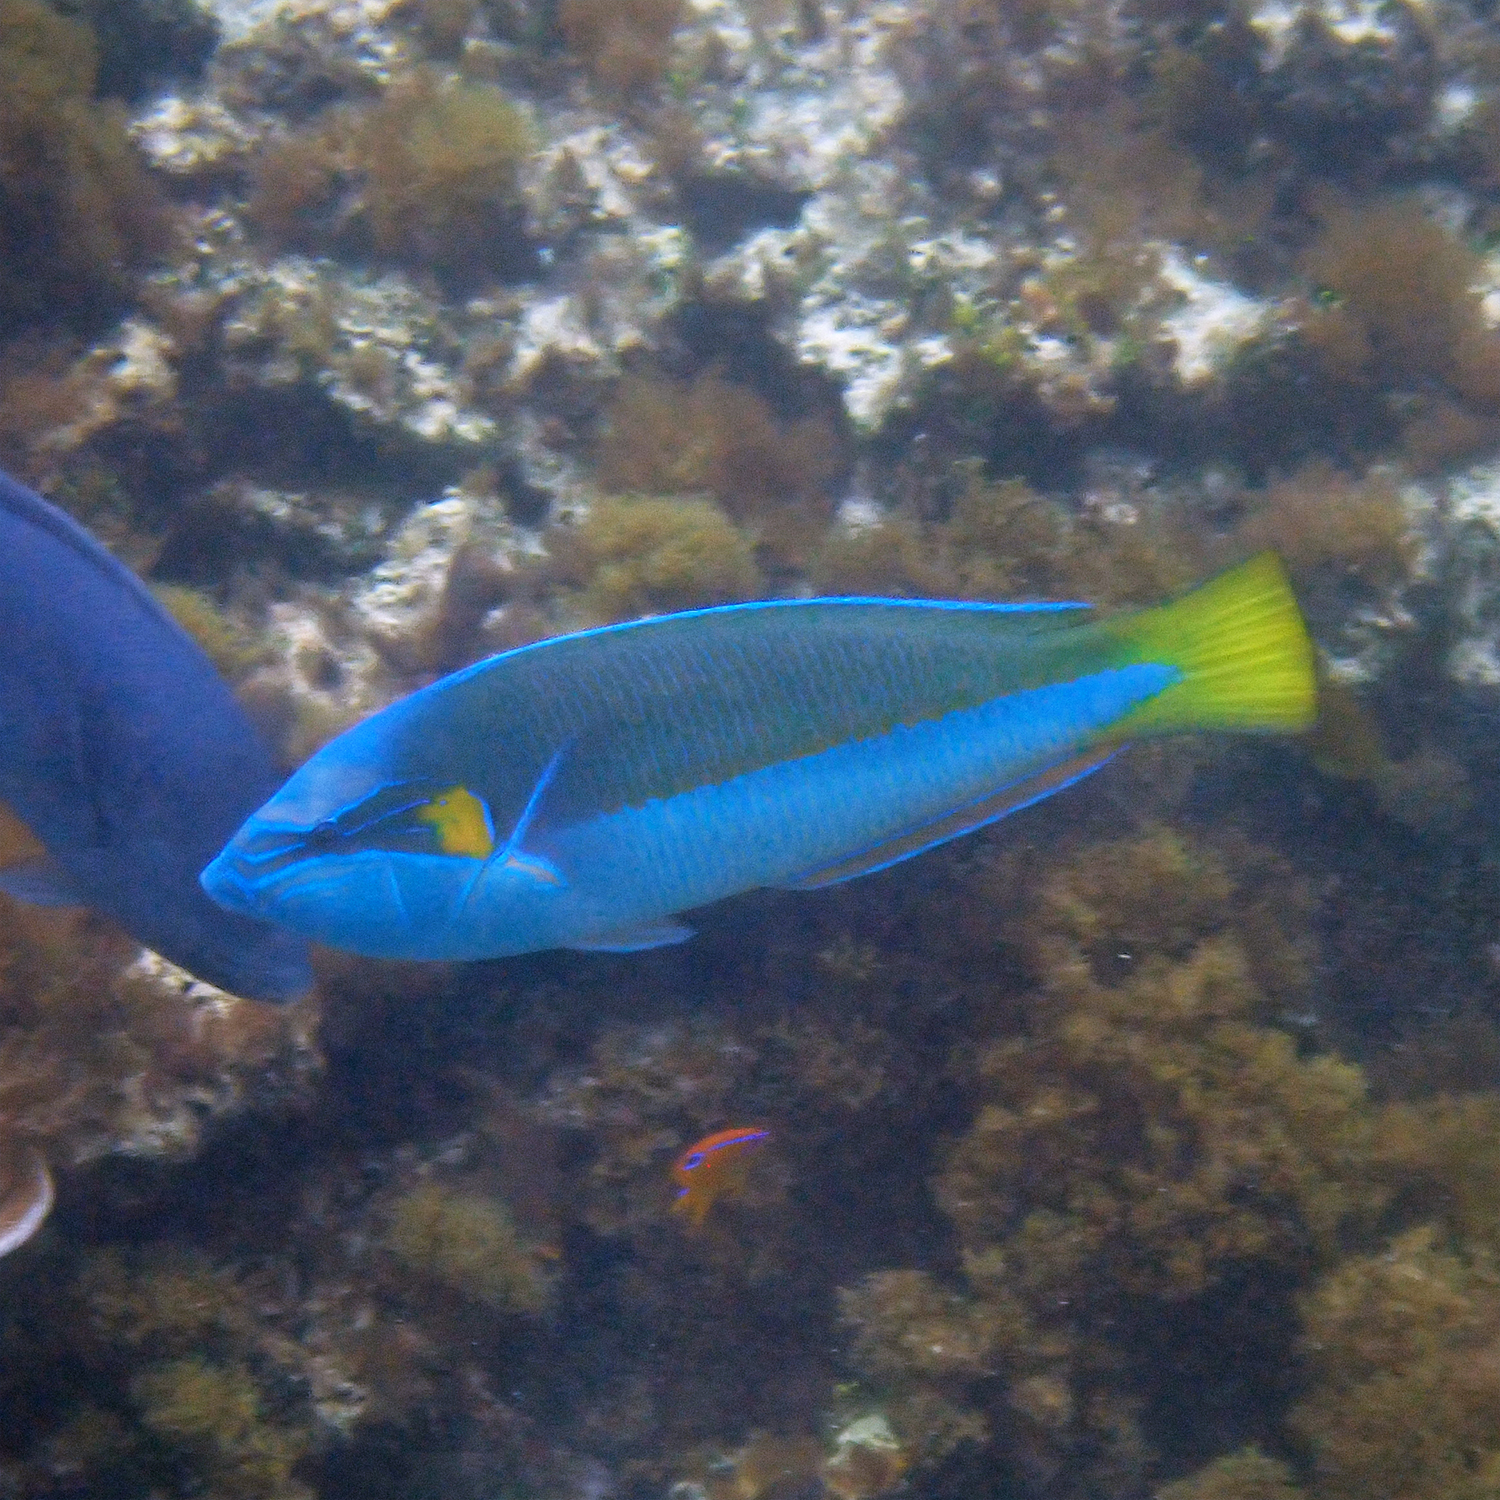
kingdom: Animalia
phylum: Chordata
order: Perciformes
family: Labridae
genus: Anampses
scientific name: Anampses elegans
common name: Elegant wrasse
